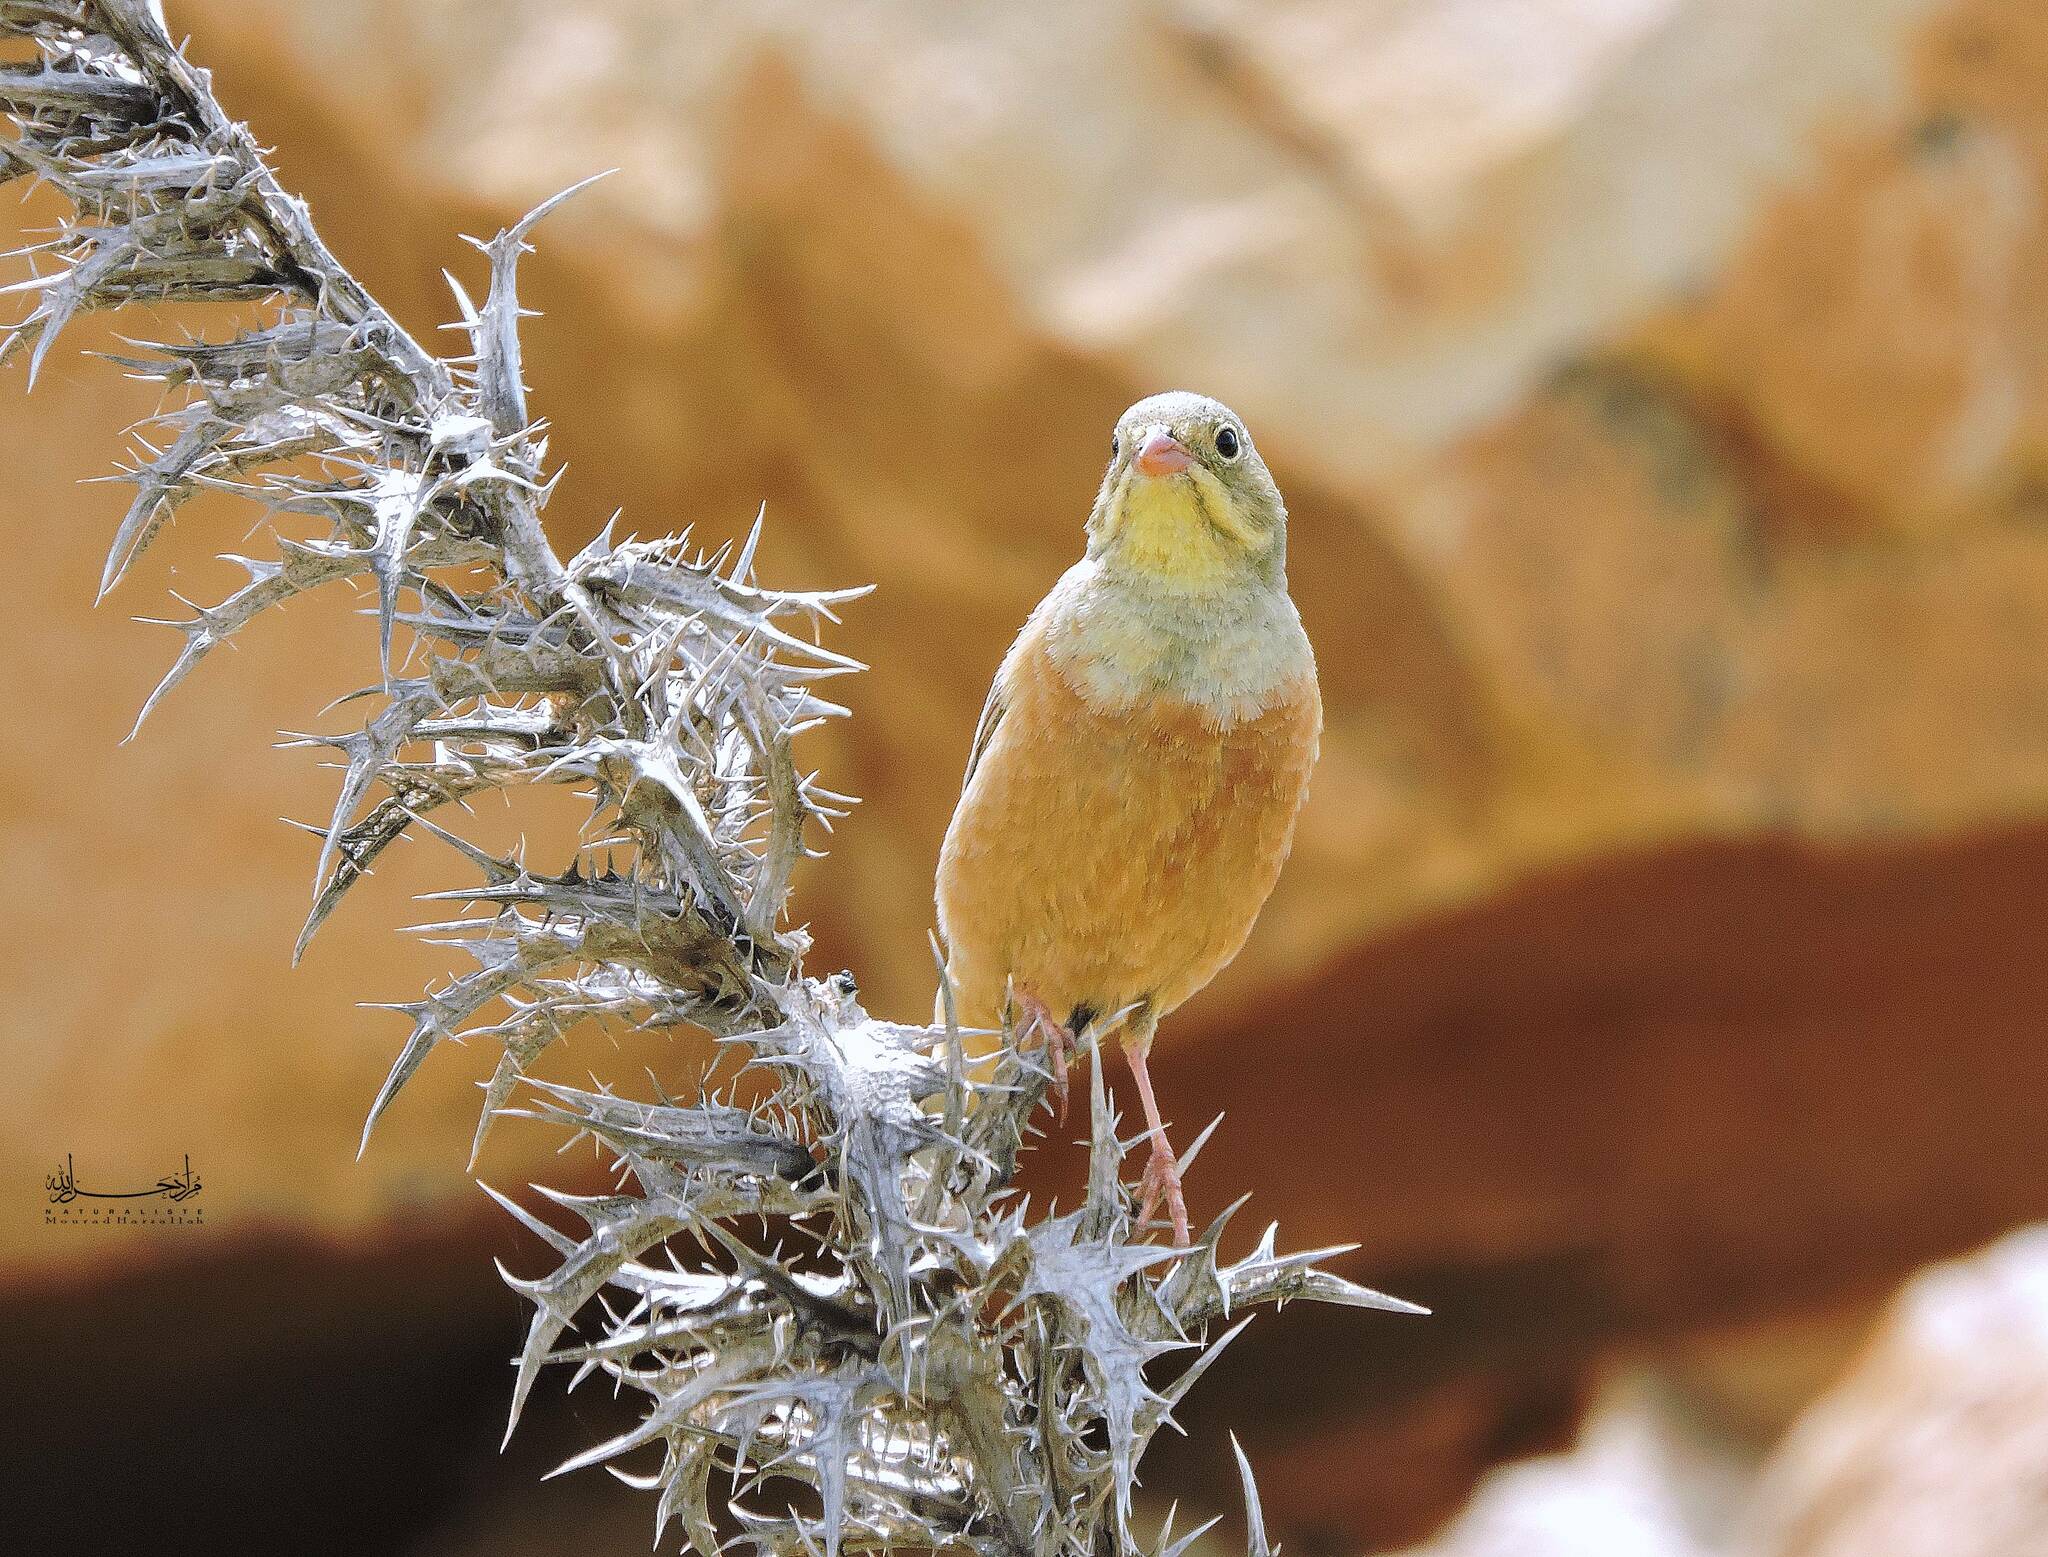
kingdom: Animalia
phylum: Chordata
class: Aves
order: Passeriformes
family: Emberizidae
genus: Emberiza
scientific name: Emberiza hortulana
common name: Ortolan bunting
